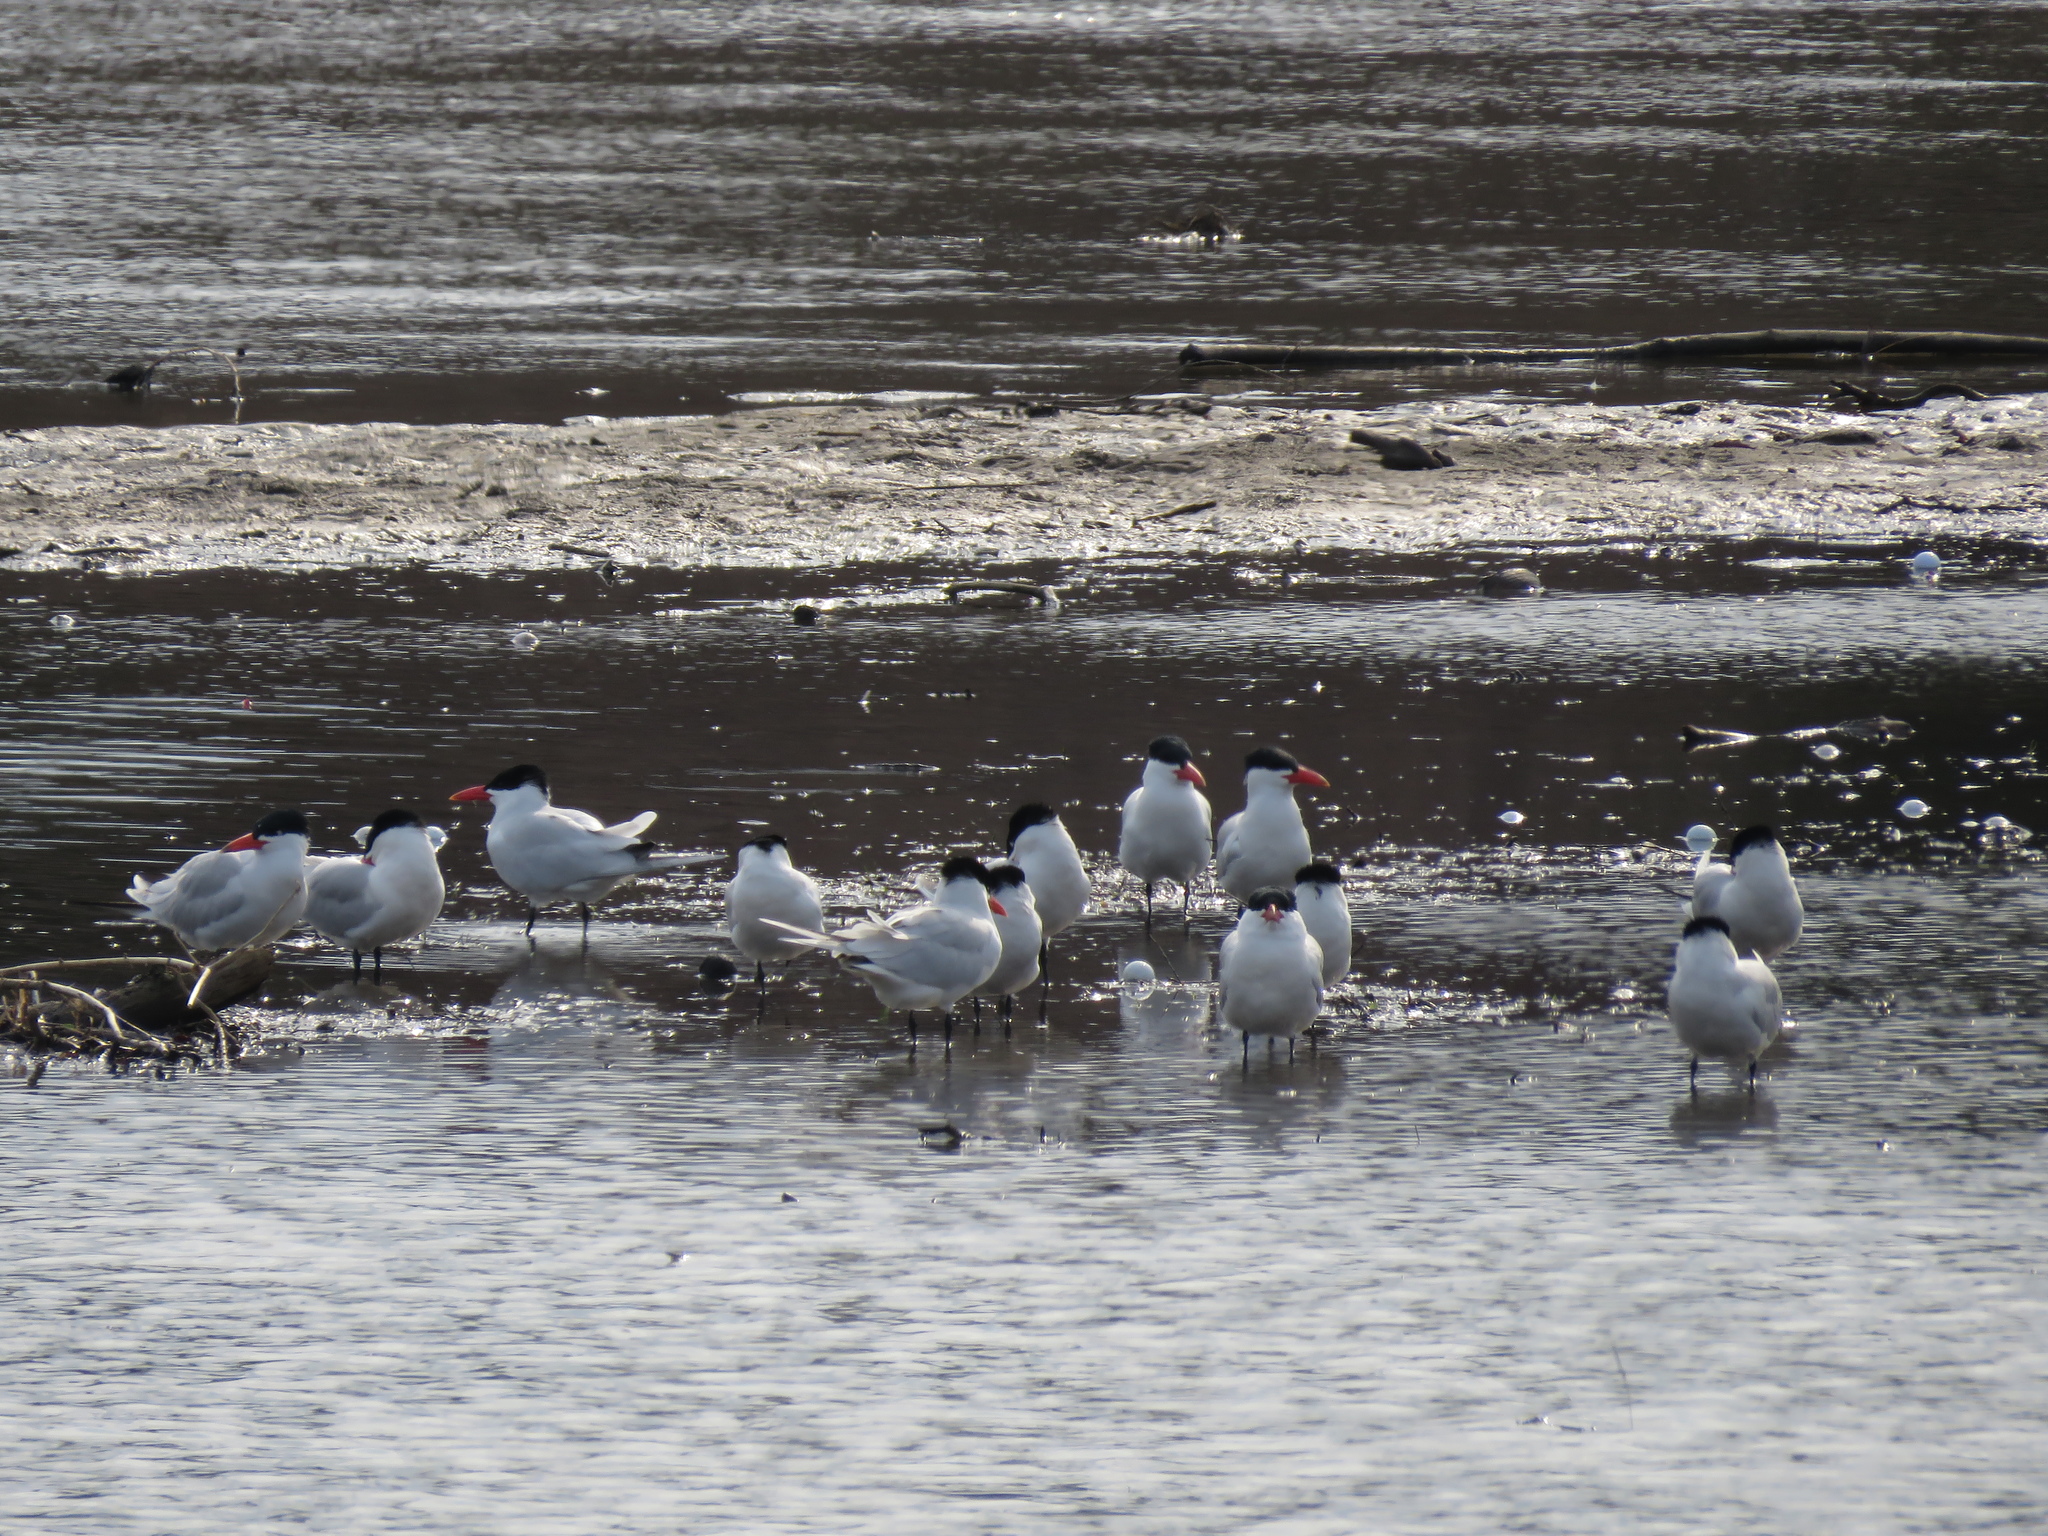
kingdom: Animalia
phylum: Chordata
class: Aves
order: Charadriiformes
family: Laridae
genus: Hydroprogne
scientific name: Hydroprogne caspia
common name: Caspian tern
